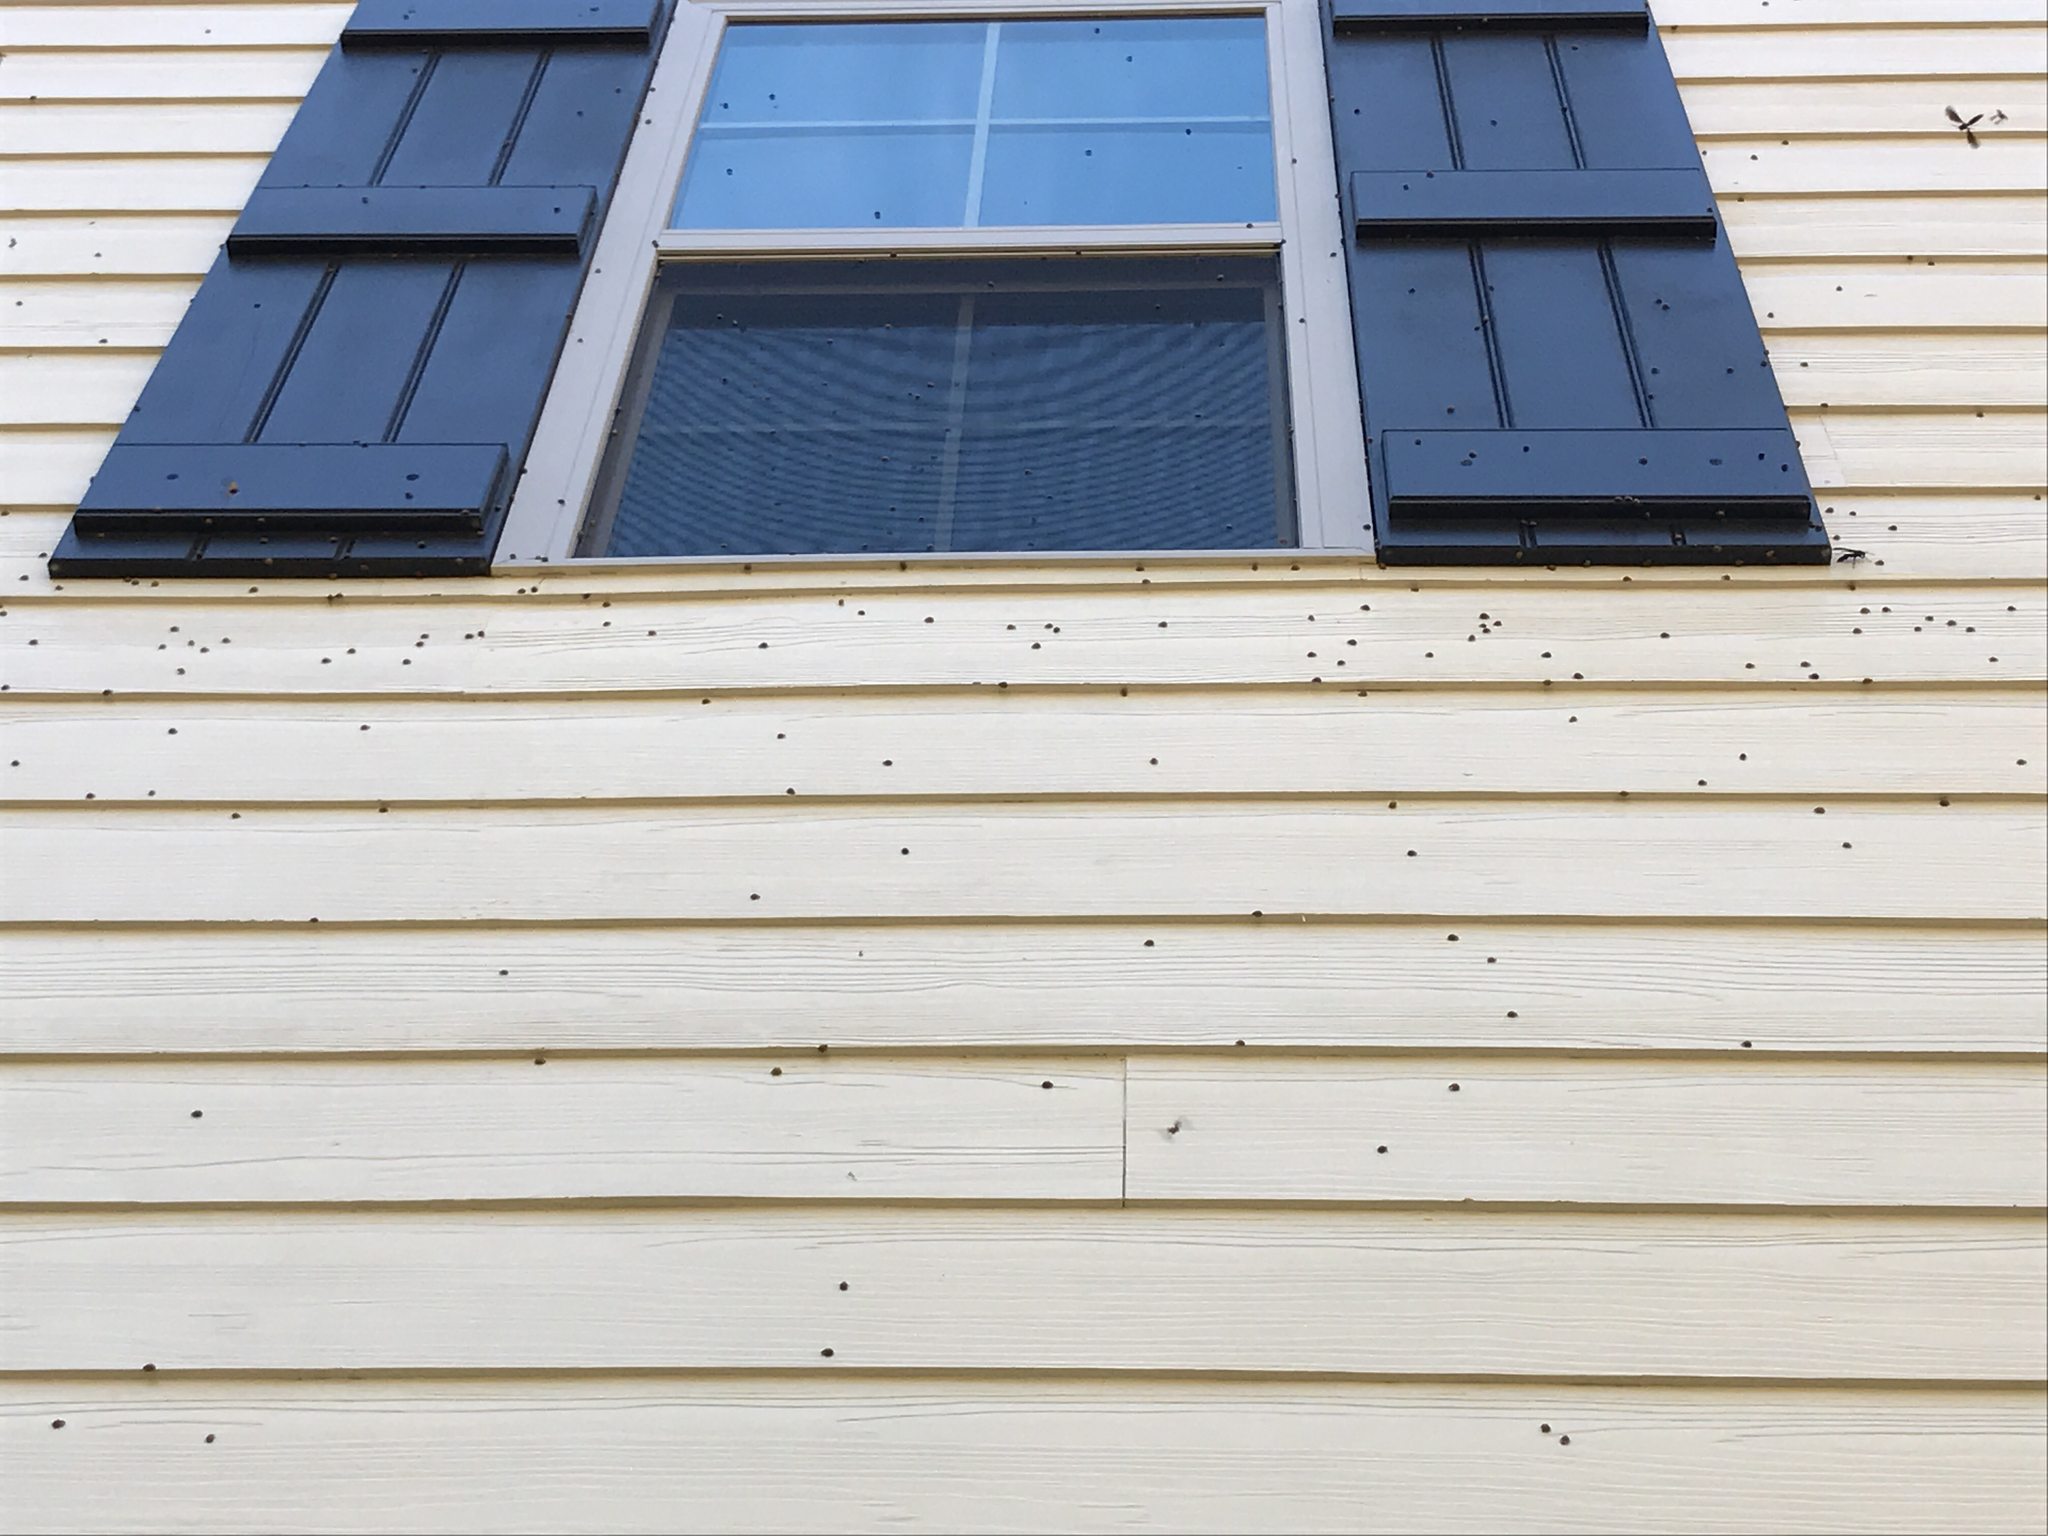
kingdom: Animalia
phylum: Arthropoda
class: Insecta
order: Coleoptera
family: Coccinellidae
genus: Harmonia
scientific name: Harmonia axyridis
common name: Harlequin ladybird
